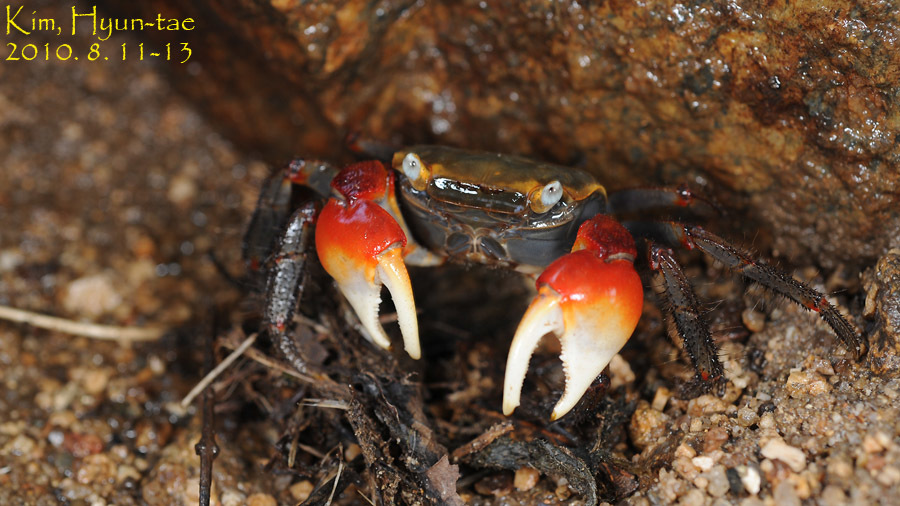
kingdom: Animalia
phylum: Arthropoda
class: Malacostraca
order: Decapoda
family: Sesarmidae
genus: Chiromantes
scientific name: Chiromantes haematocheir
